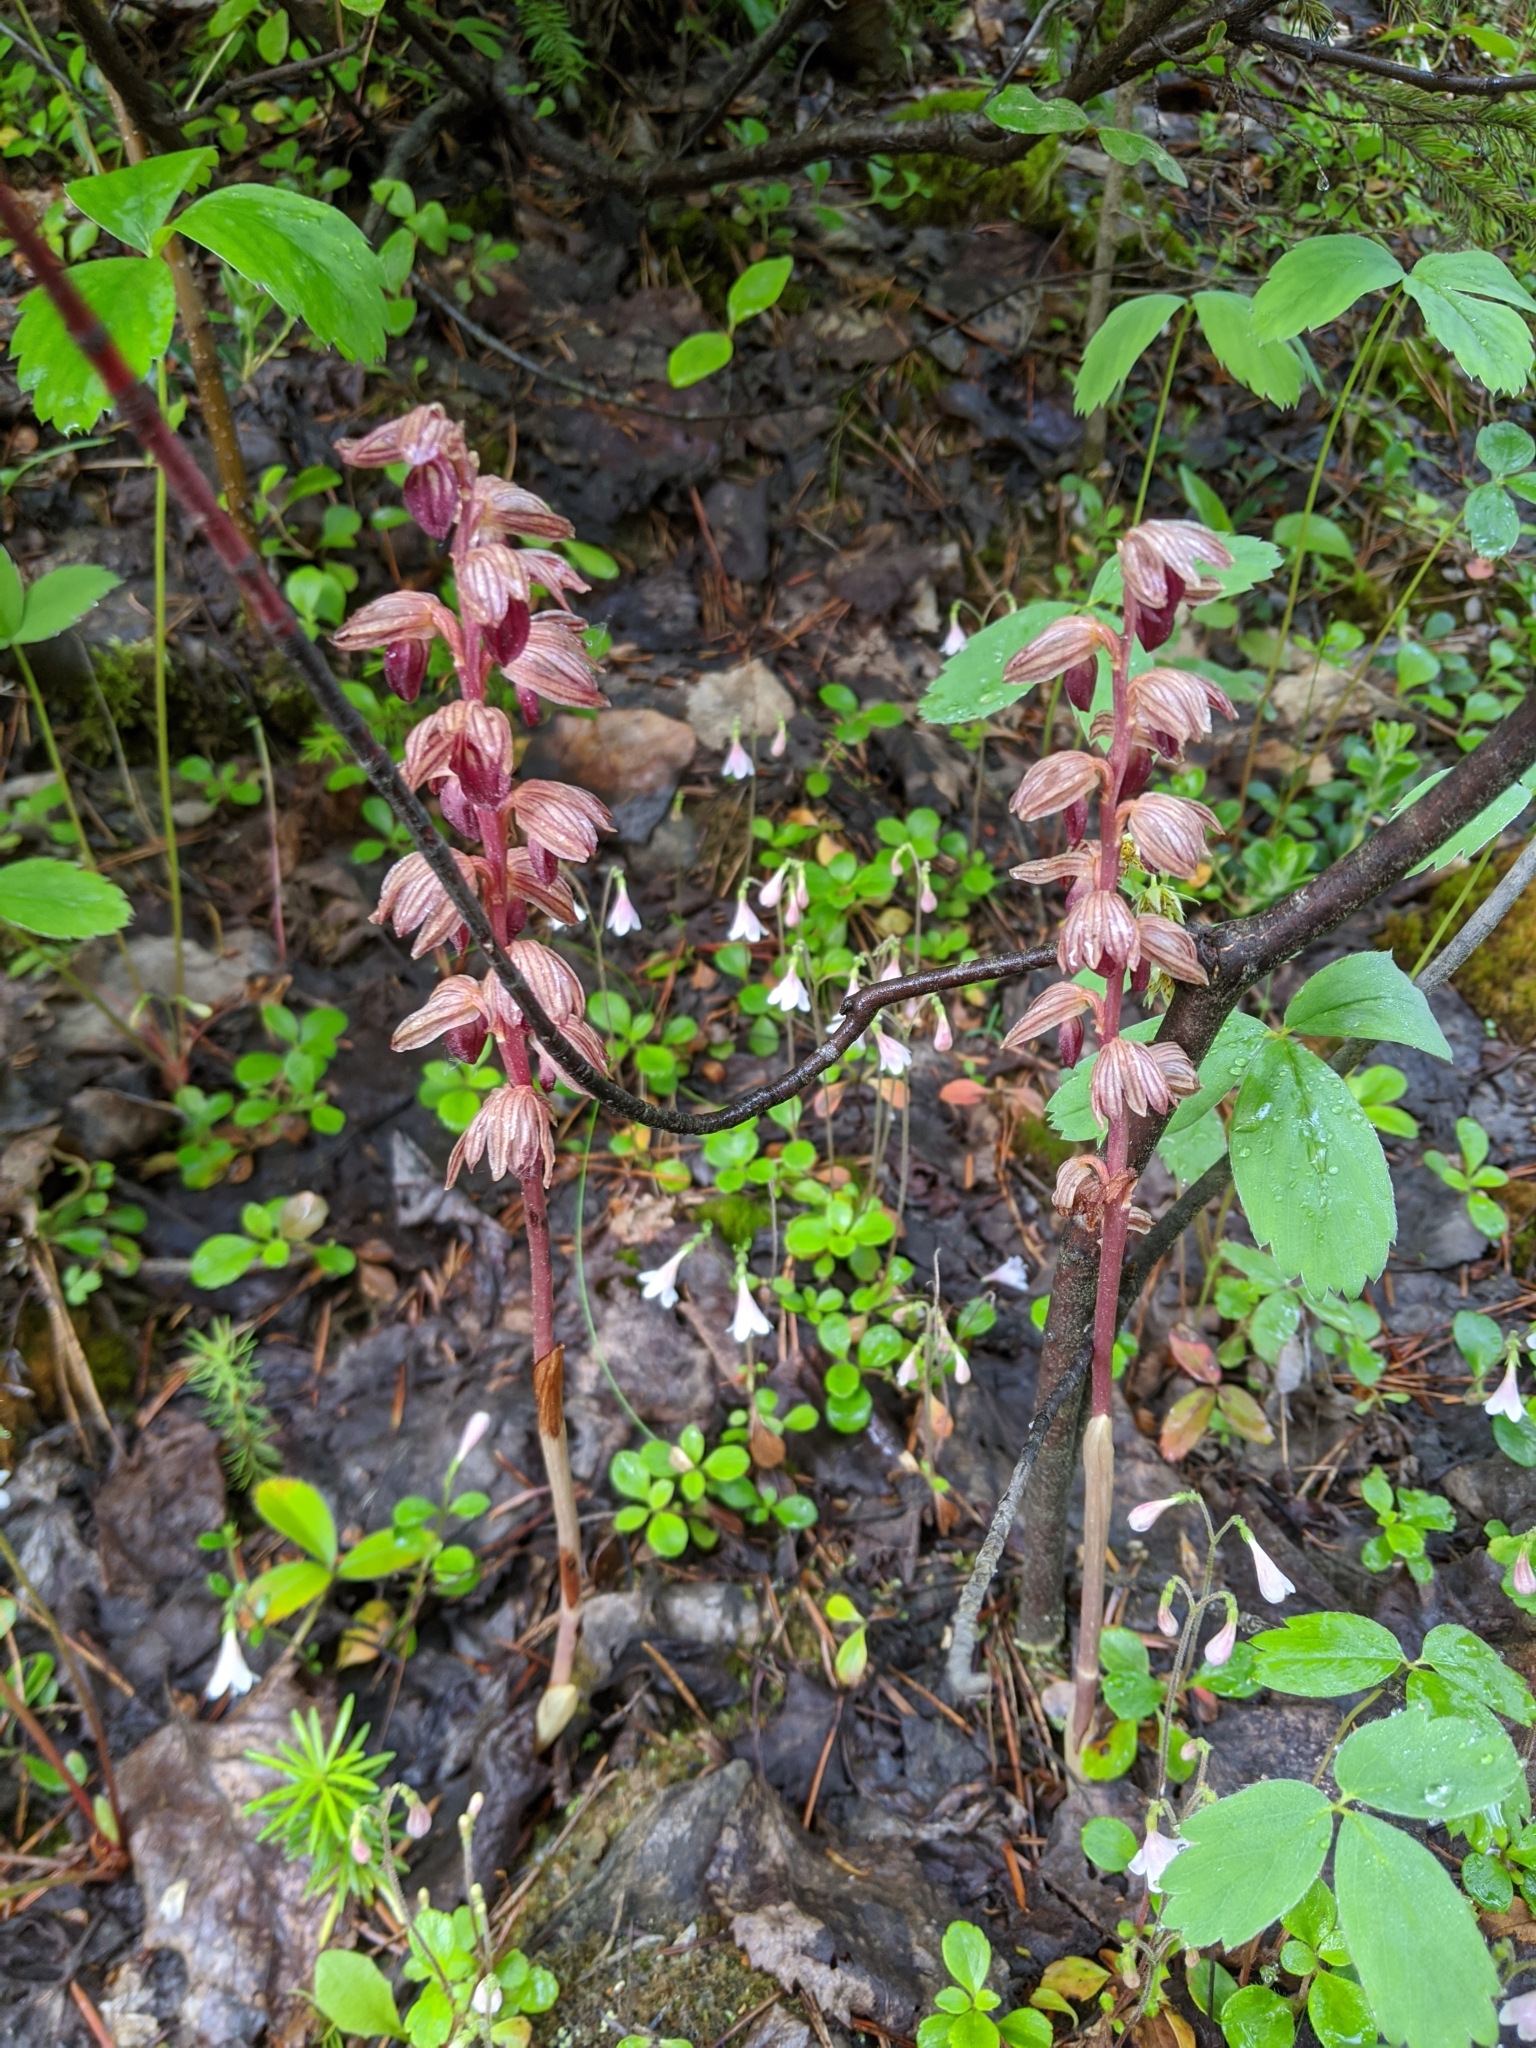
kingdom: Plantae
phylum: Tracheophyta
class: Liliopsida
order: Asparagales
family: Orchidaceae
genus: Corallorhiza
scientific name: Corallorhiza striata
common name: Hooded coralroot
